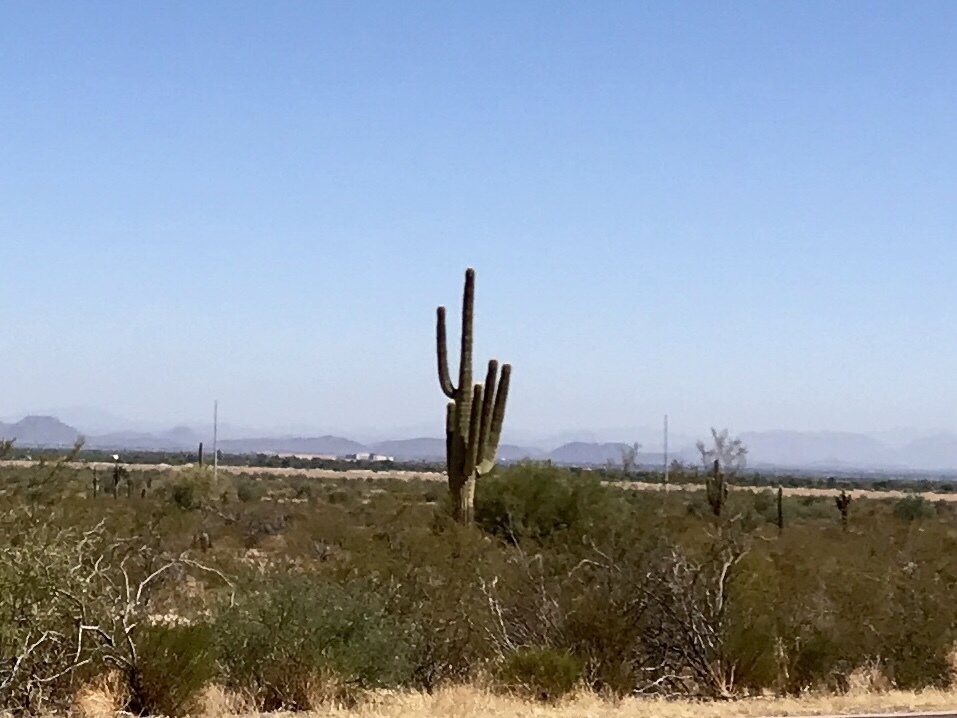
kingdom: Plantae
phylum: Tracheophyta
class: Magnoliopsida
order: Caryophyllales
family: Cactaceae
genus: Carnegiea
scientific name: Carnegiea gigantea
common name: Saguaro
